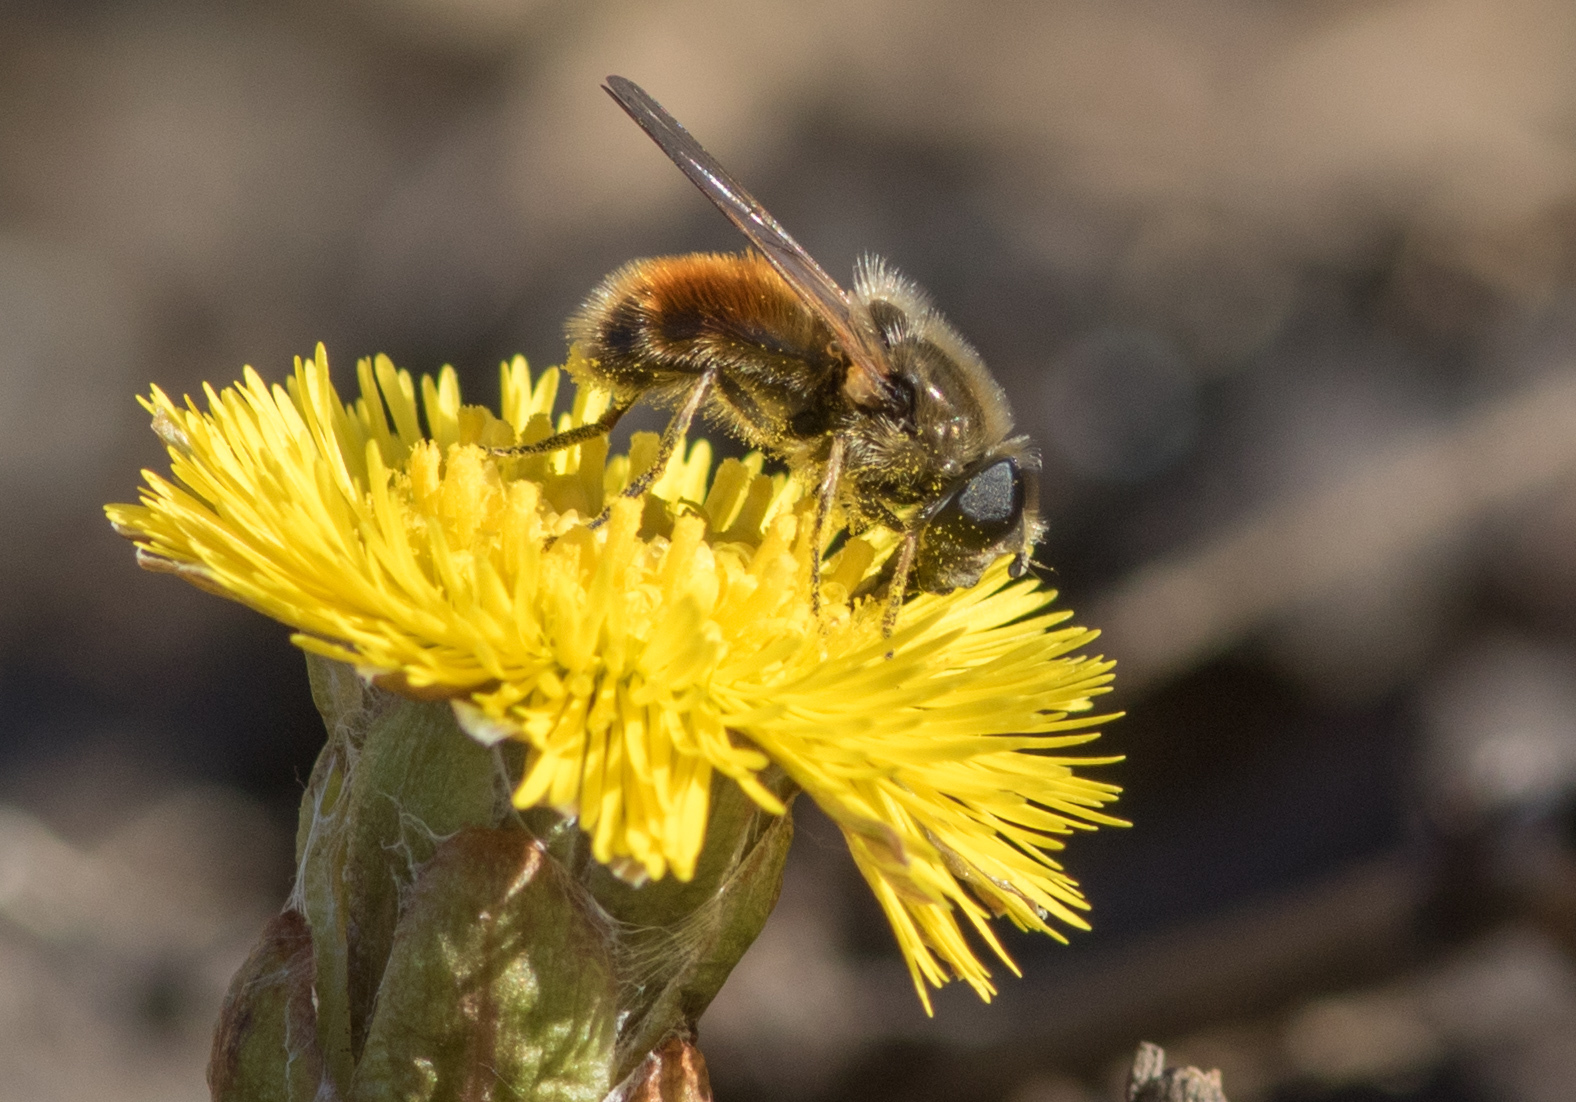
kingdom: Animalia
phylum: Arthropoda
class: Insecta
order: Diptera
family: Syrphidae
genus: Cheilosia
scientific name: Cheilosia corydon
